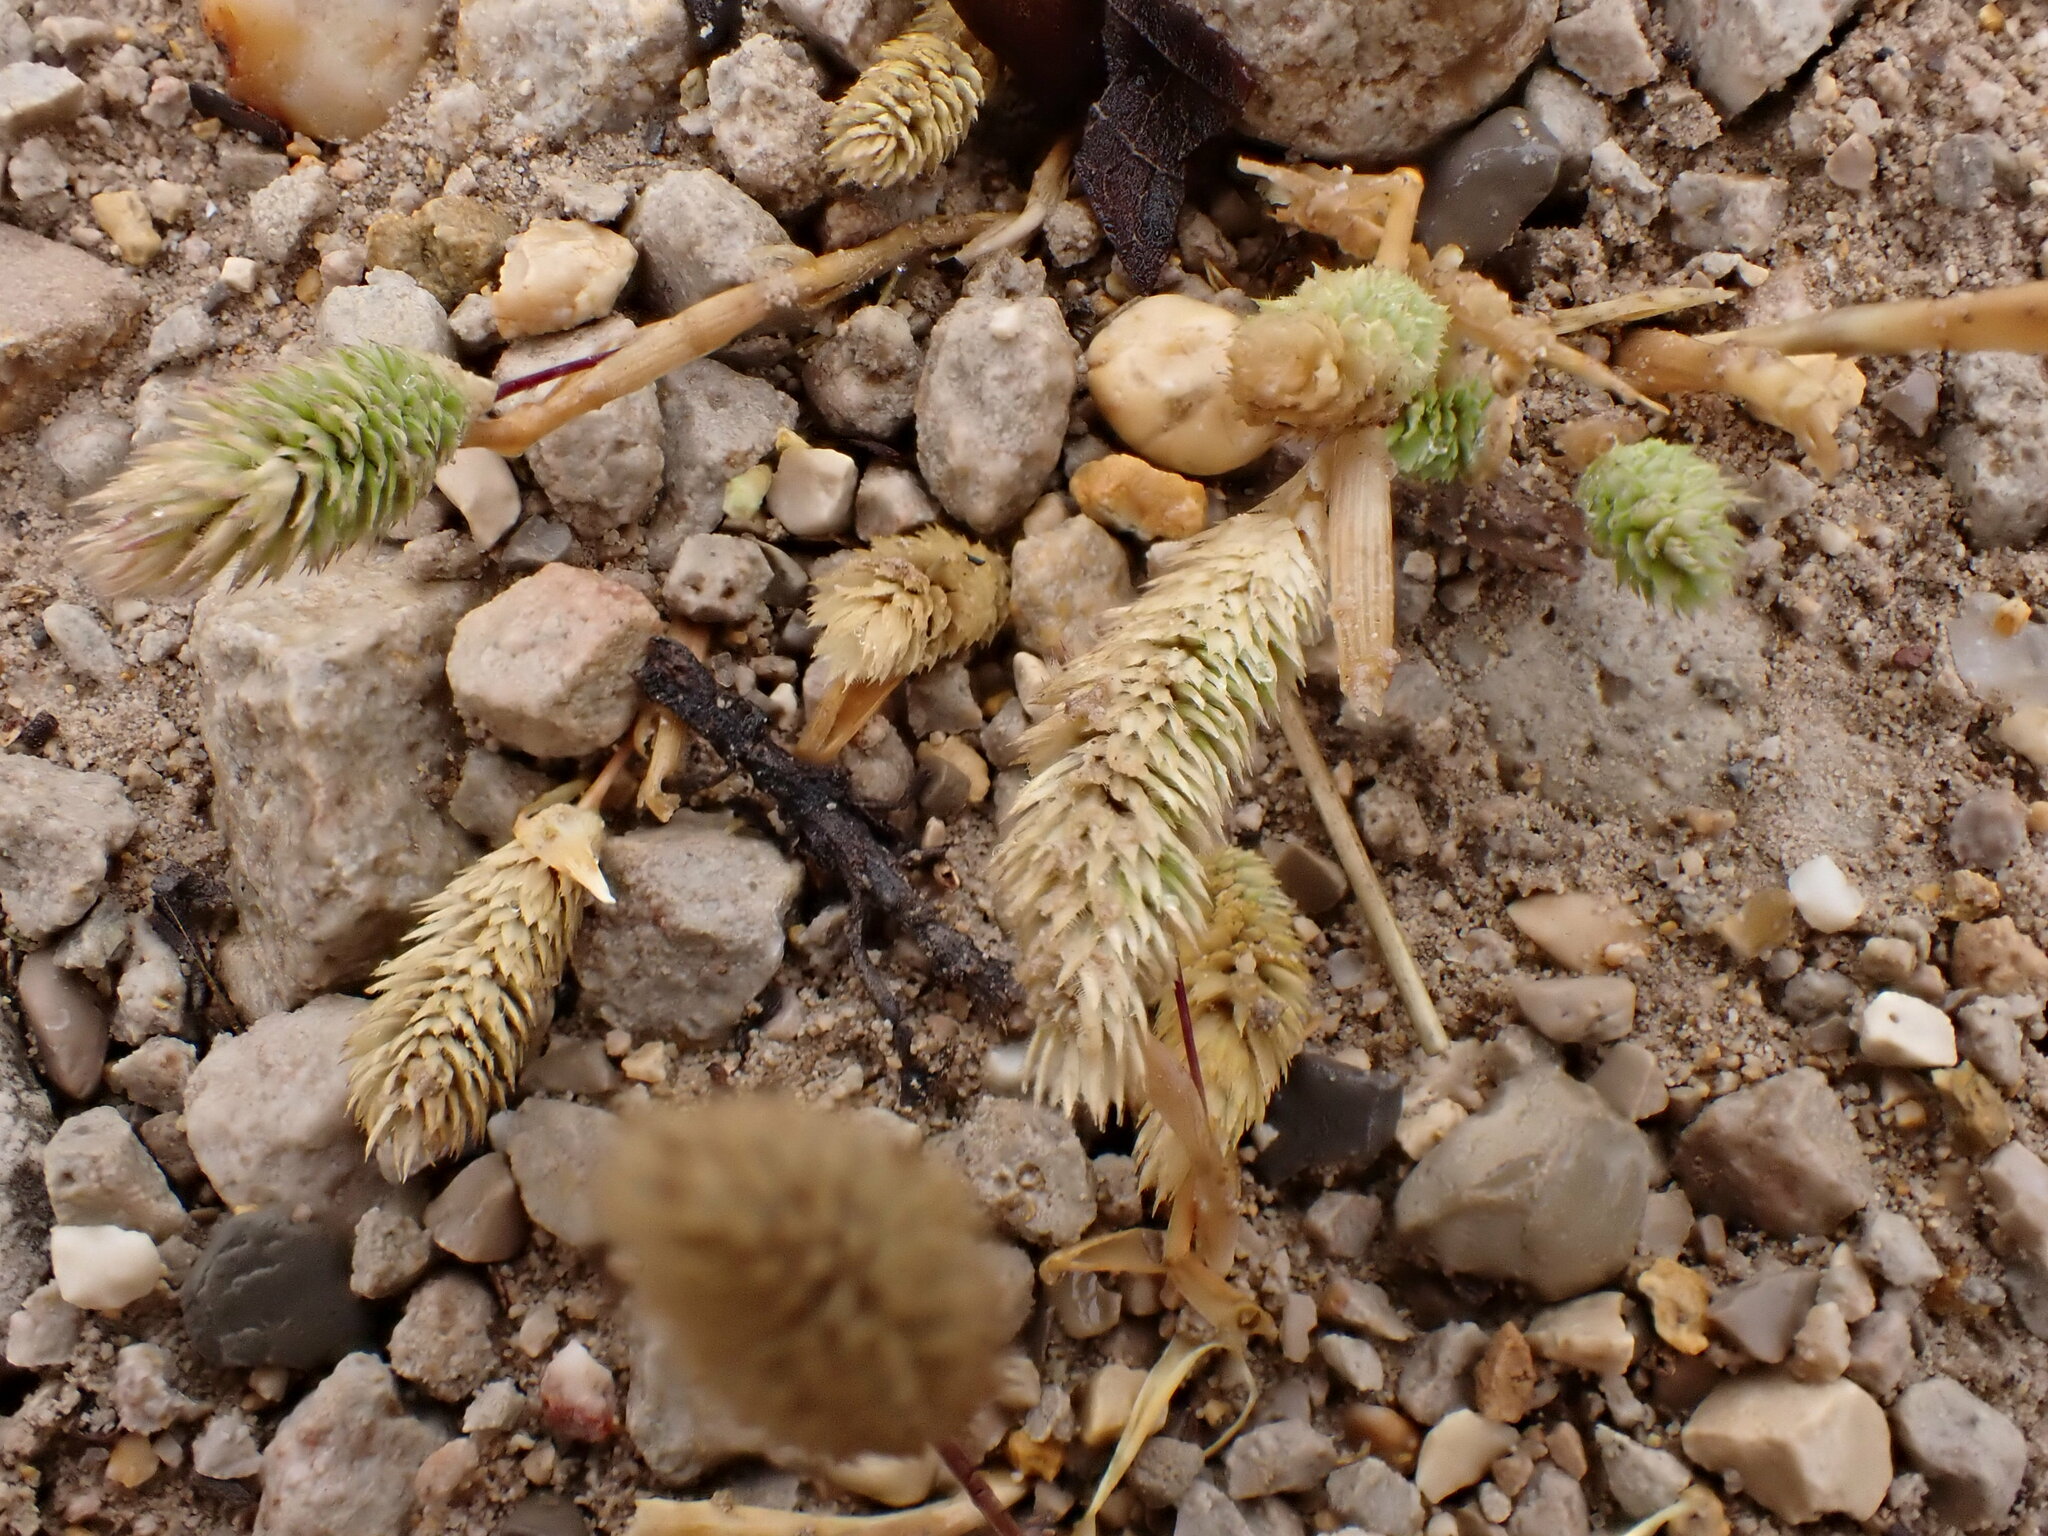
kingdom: Plantae
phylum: Tracheophyta
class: Liliopsida
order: Poales
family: Poaceae
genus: Phleum
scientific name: Phleum arenarium
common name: Sand cat's-tail
